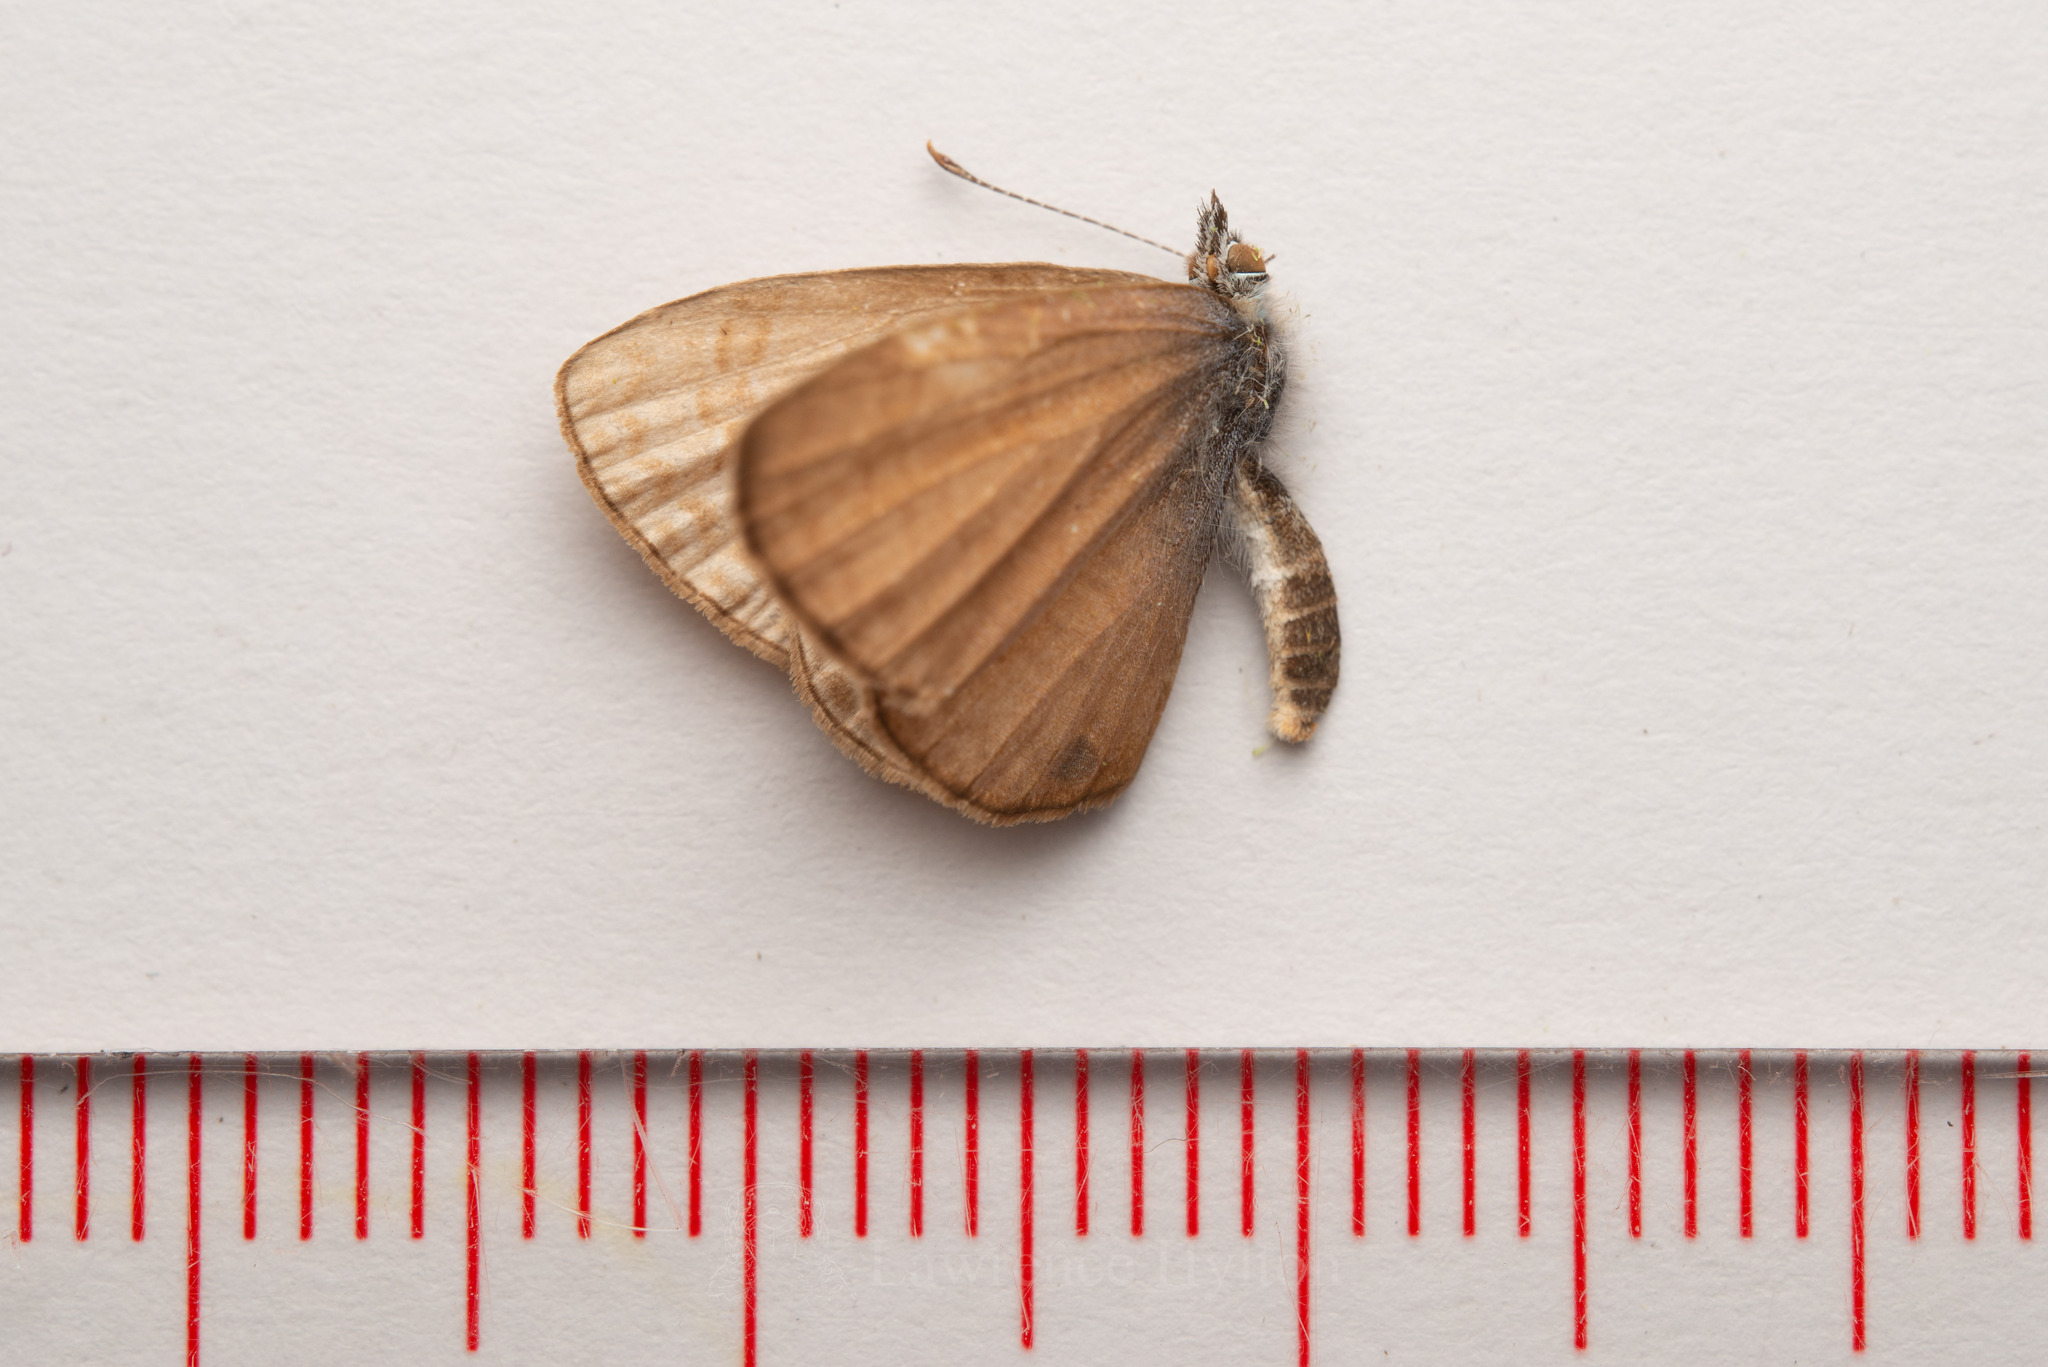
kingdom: Animalia
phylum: Arthropoda
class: Insecta
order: Lepidoptera
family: Lycaenidae
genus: Prosotas
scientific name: Prosotas dubiosa
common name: Tailless lineblue
